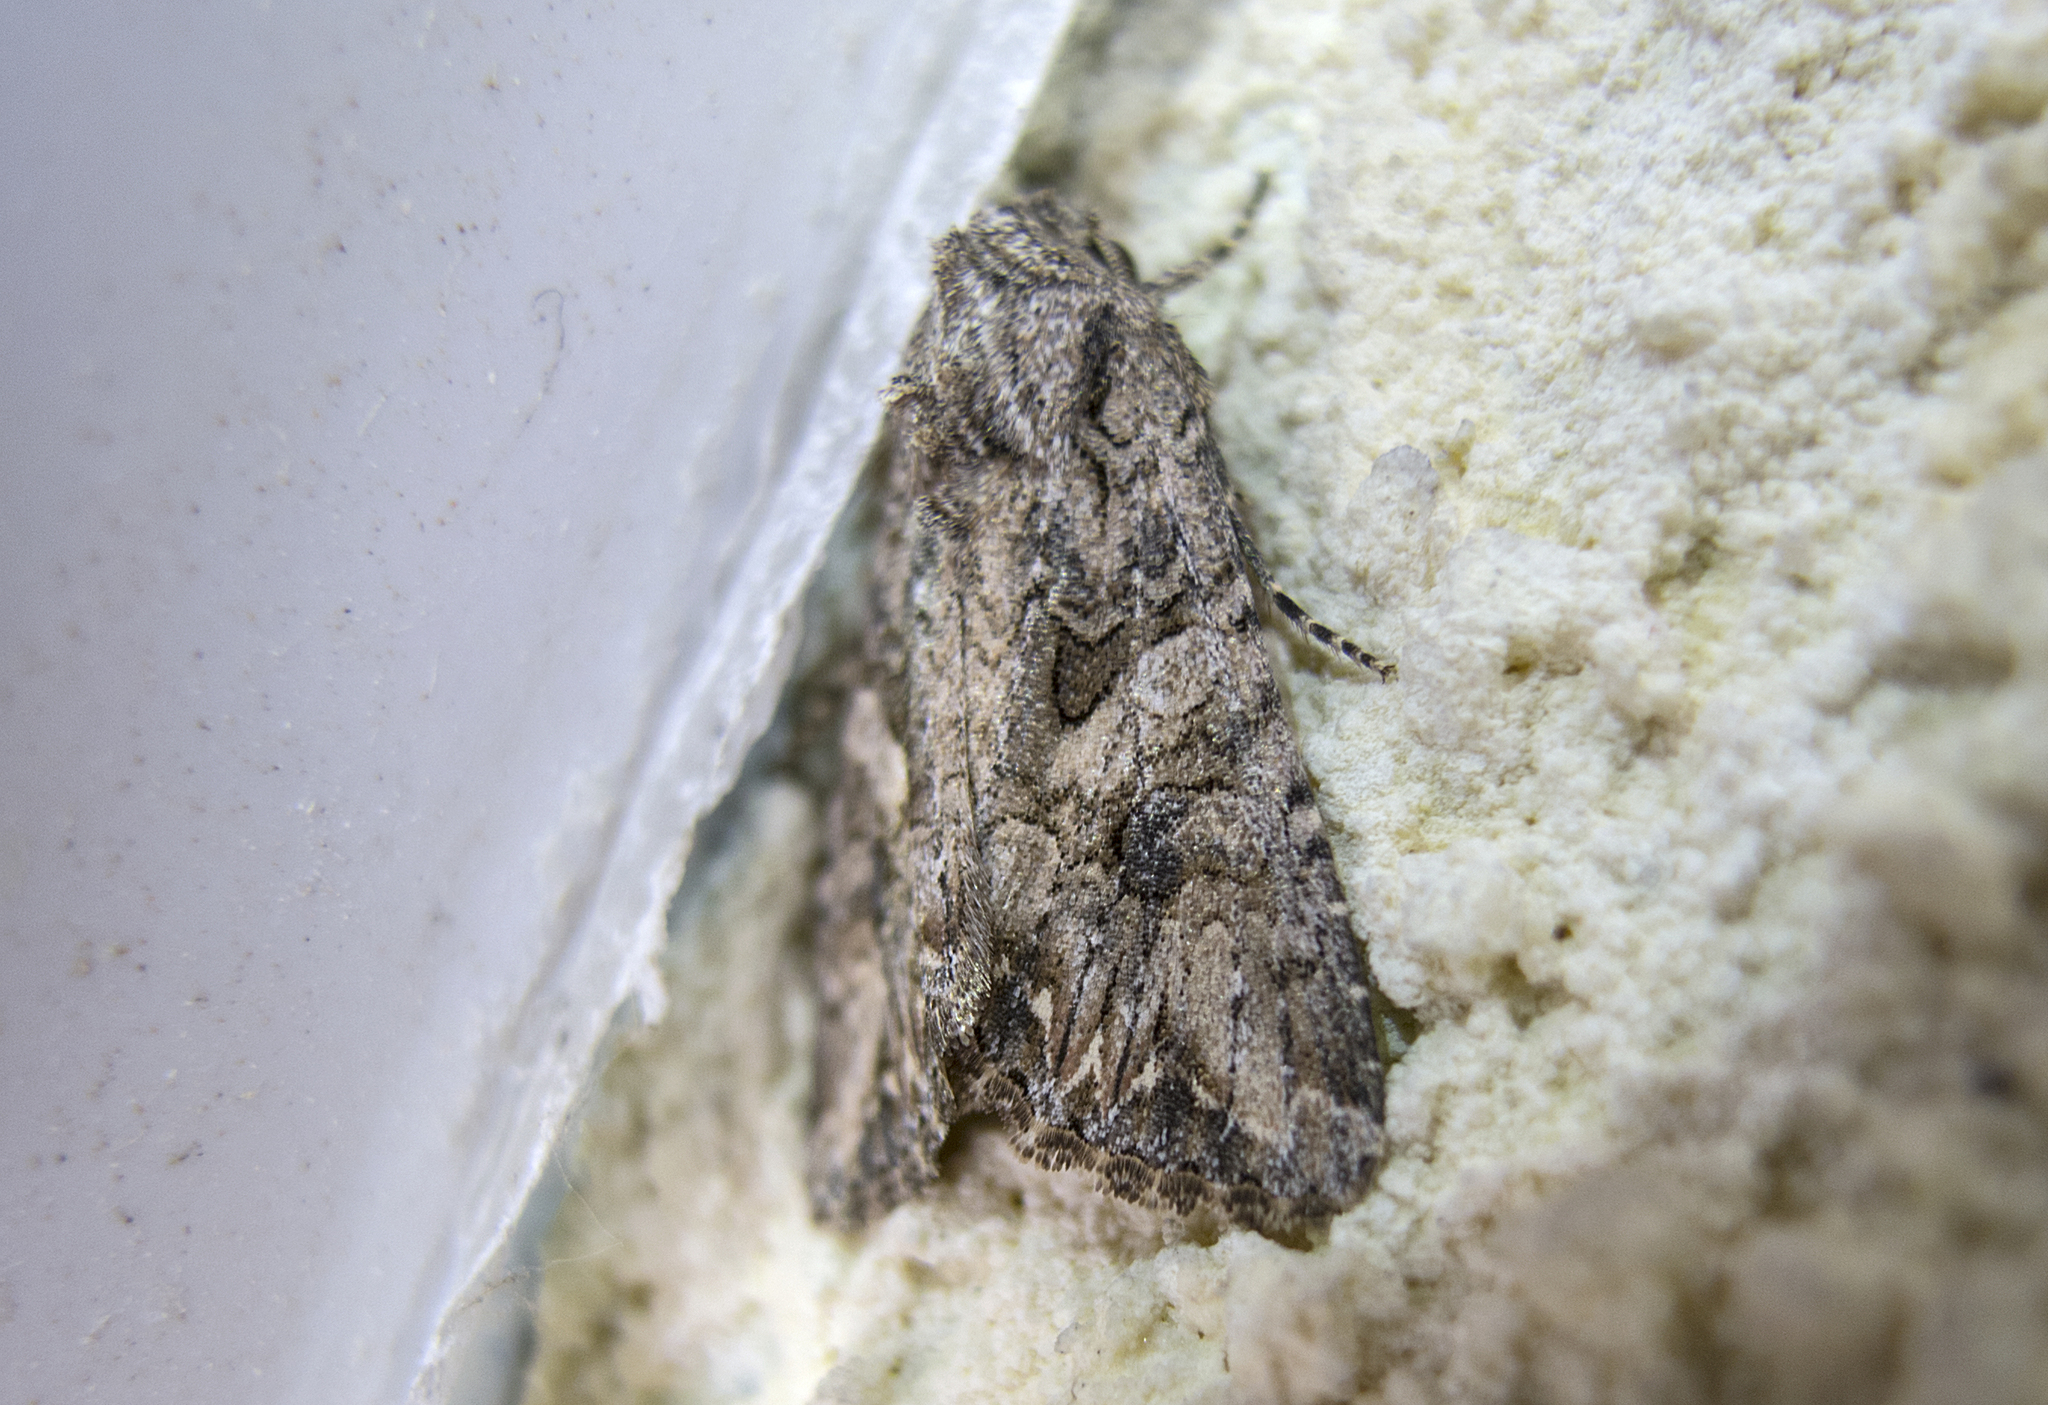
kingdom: Animalia
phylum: Arthropoda
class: Insecta
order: Lepidoptera
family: Noctuidae
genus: Anarta
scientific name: Anarta trifolii
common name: Clover cutworm moth
